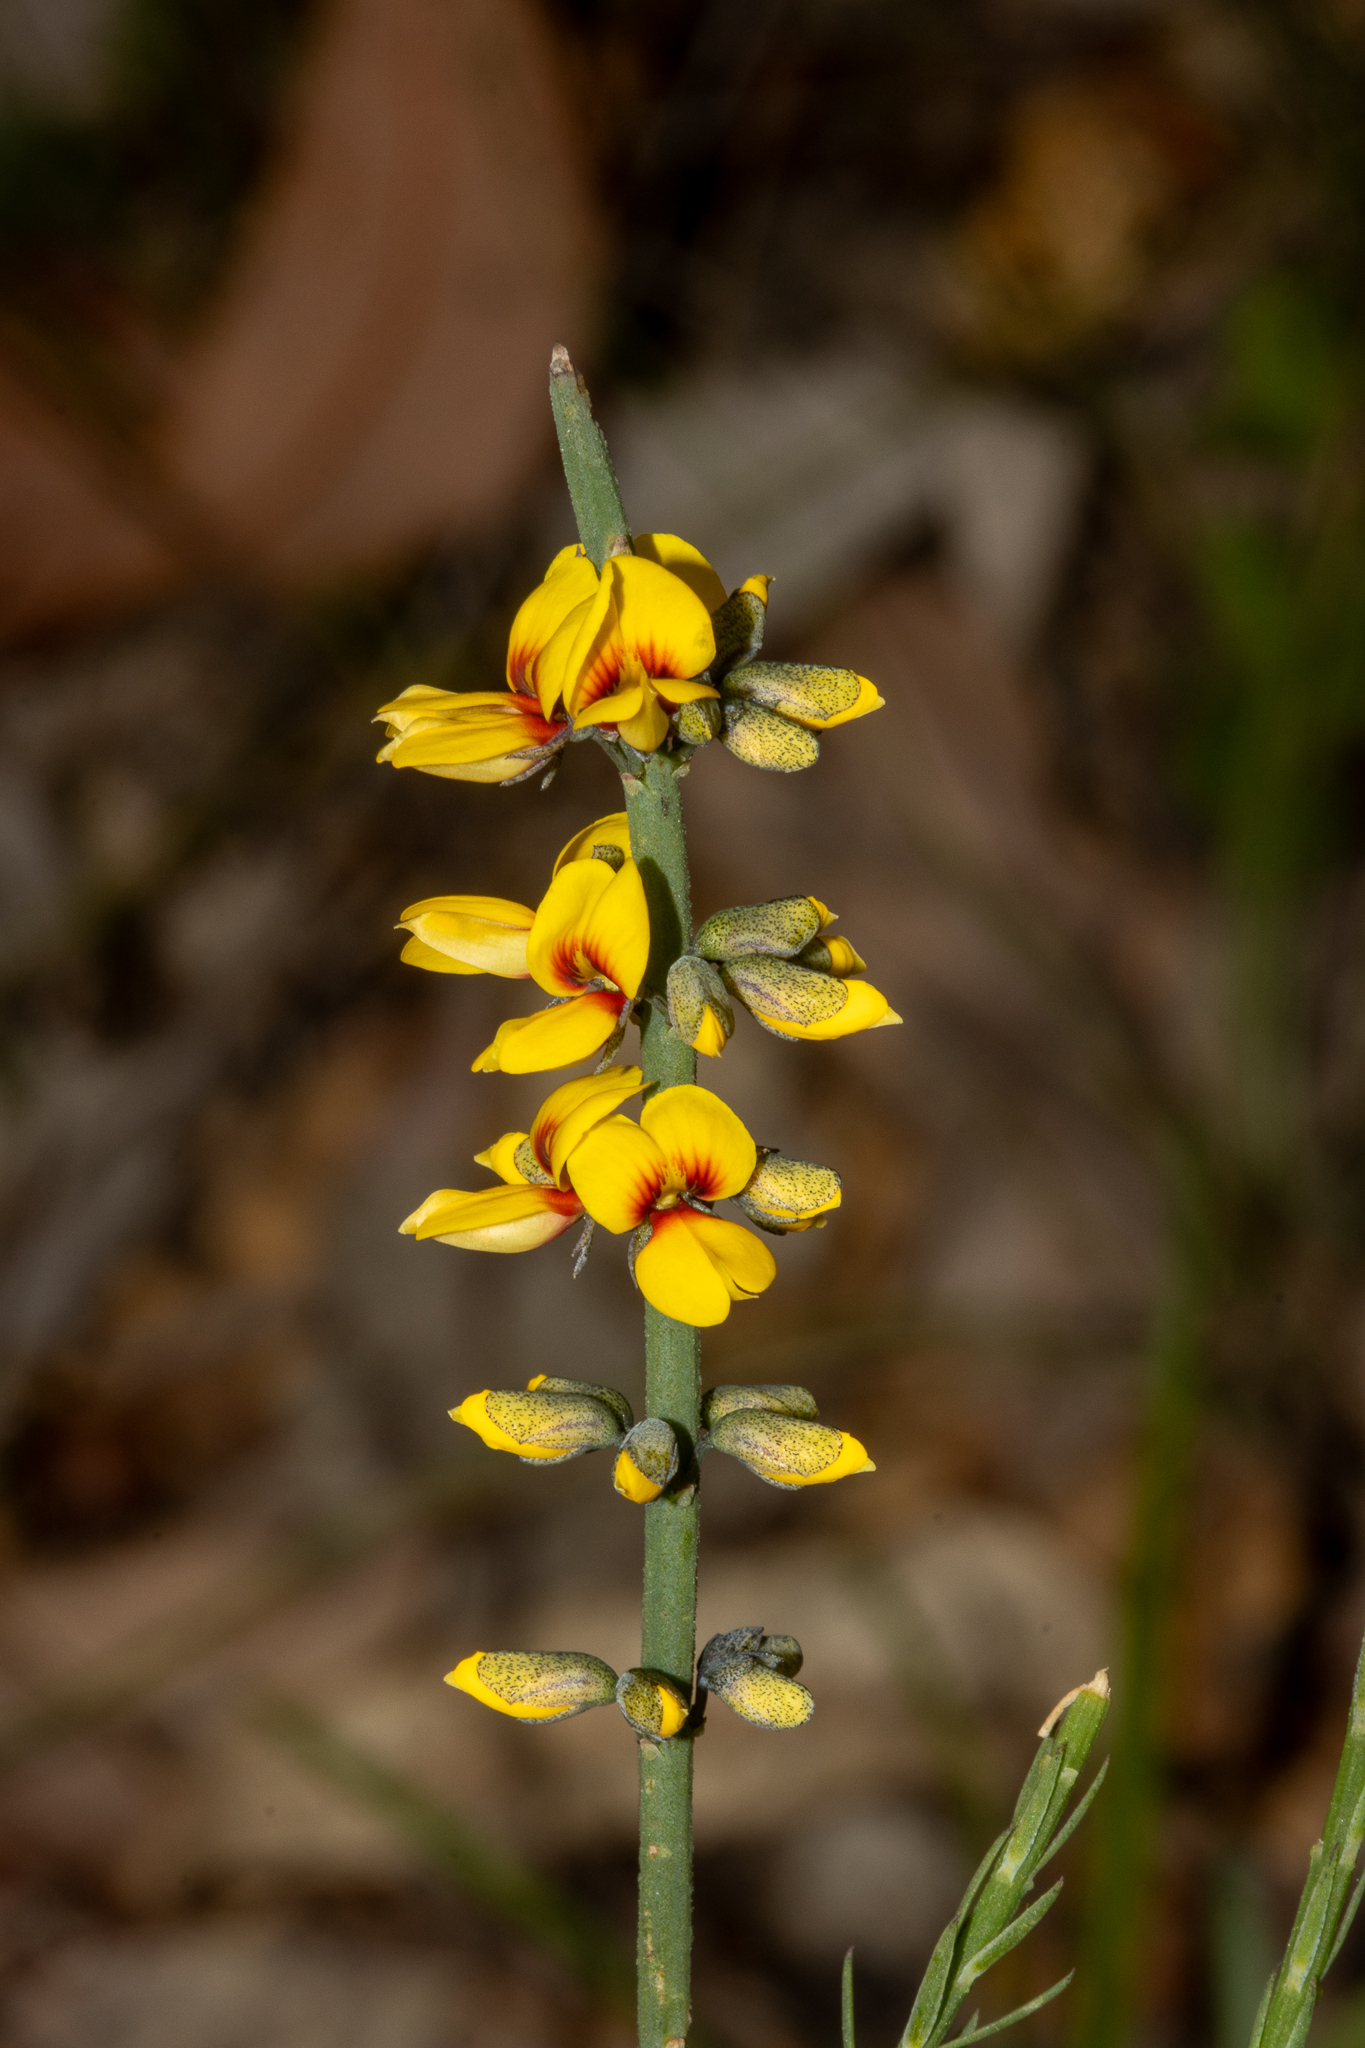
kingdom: Plantae
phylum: Tracheophyta
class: Magnoliopsida
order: Fabales
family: Fabaceae
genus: Sphaerolobium
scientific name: Sphaerolobium medium
